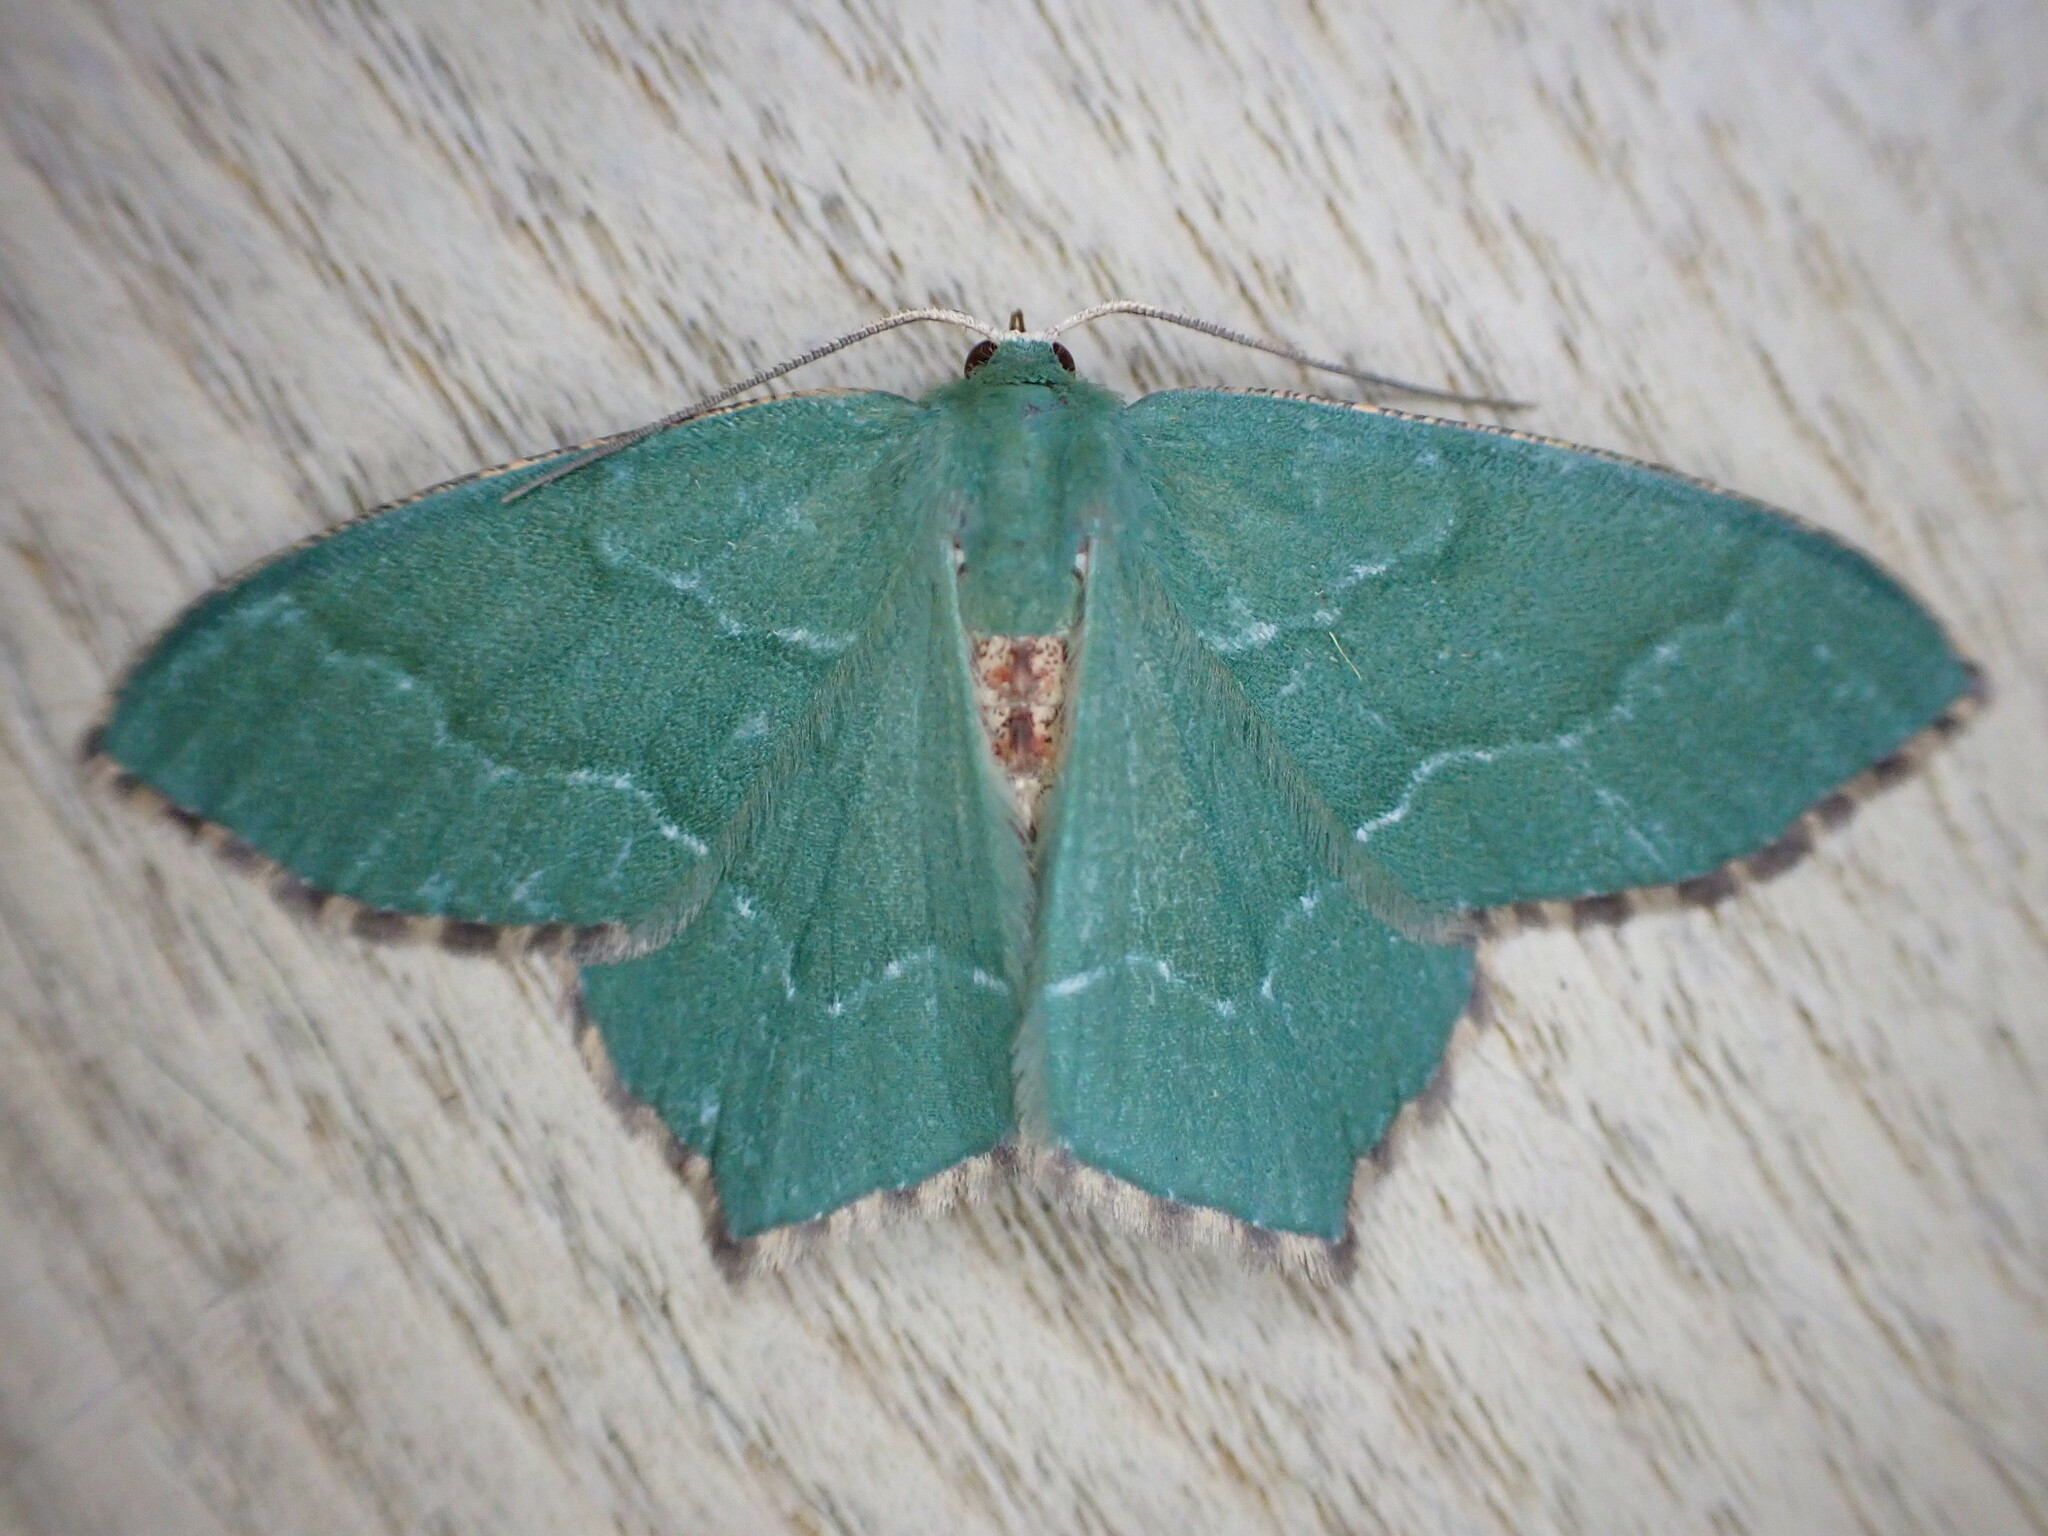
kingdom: Animalia
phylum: Arthropoda
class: Insecta
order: Lepidoptera
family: Geometridae
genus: Hemithea
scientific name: Hemithea aestivaria
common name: Common emerald
